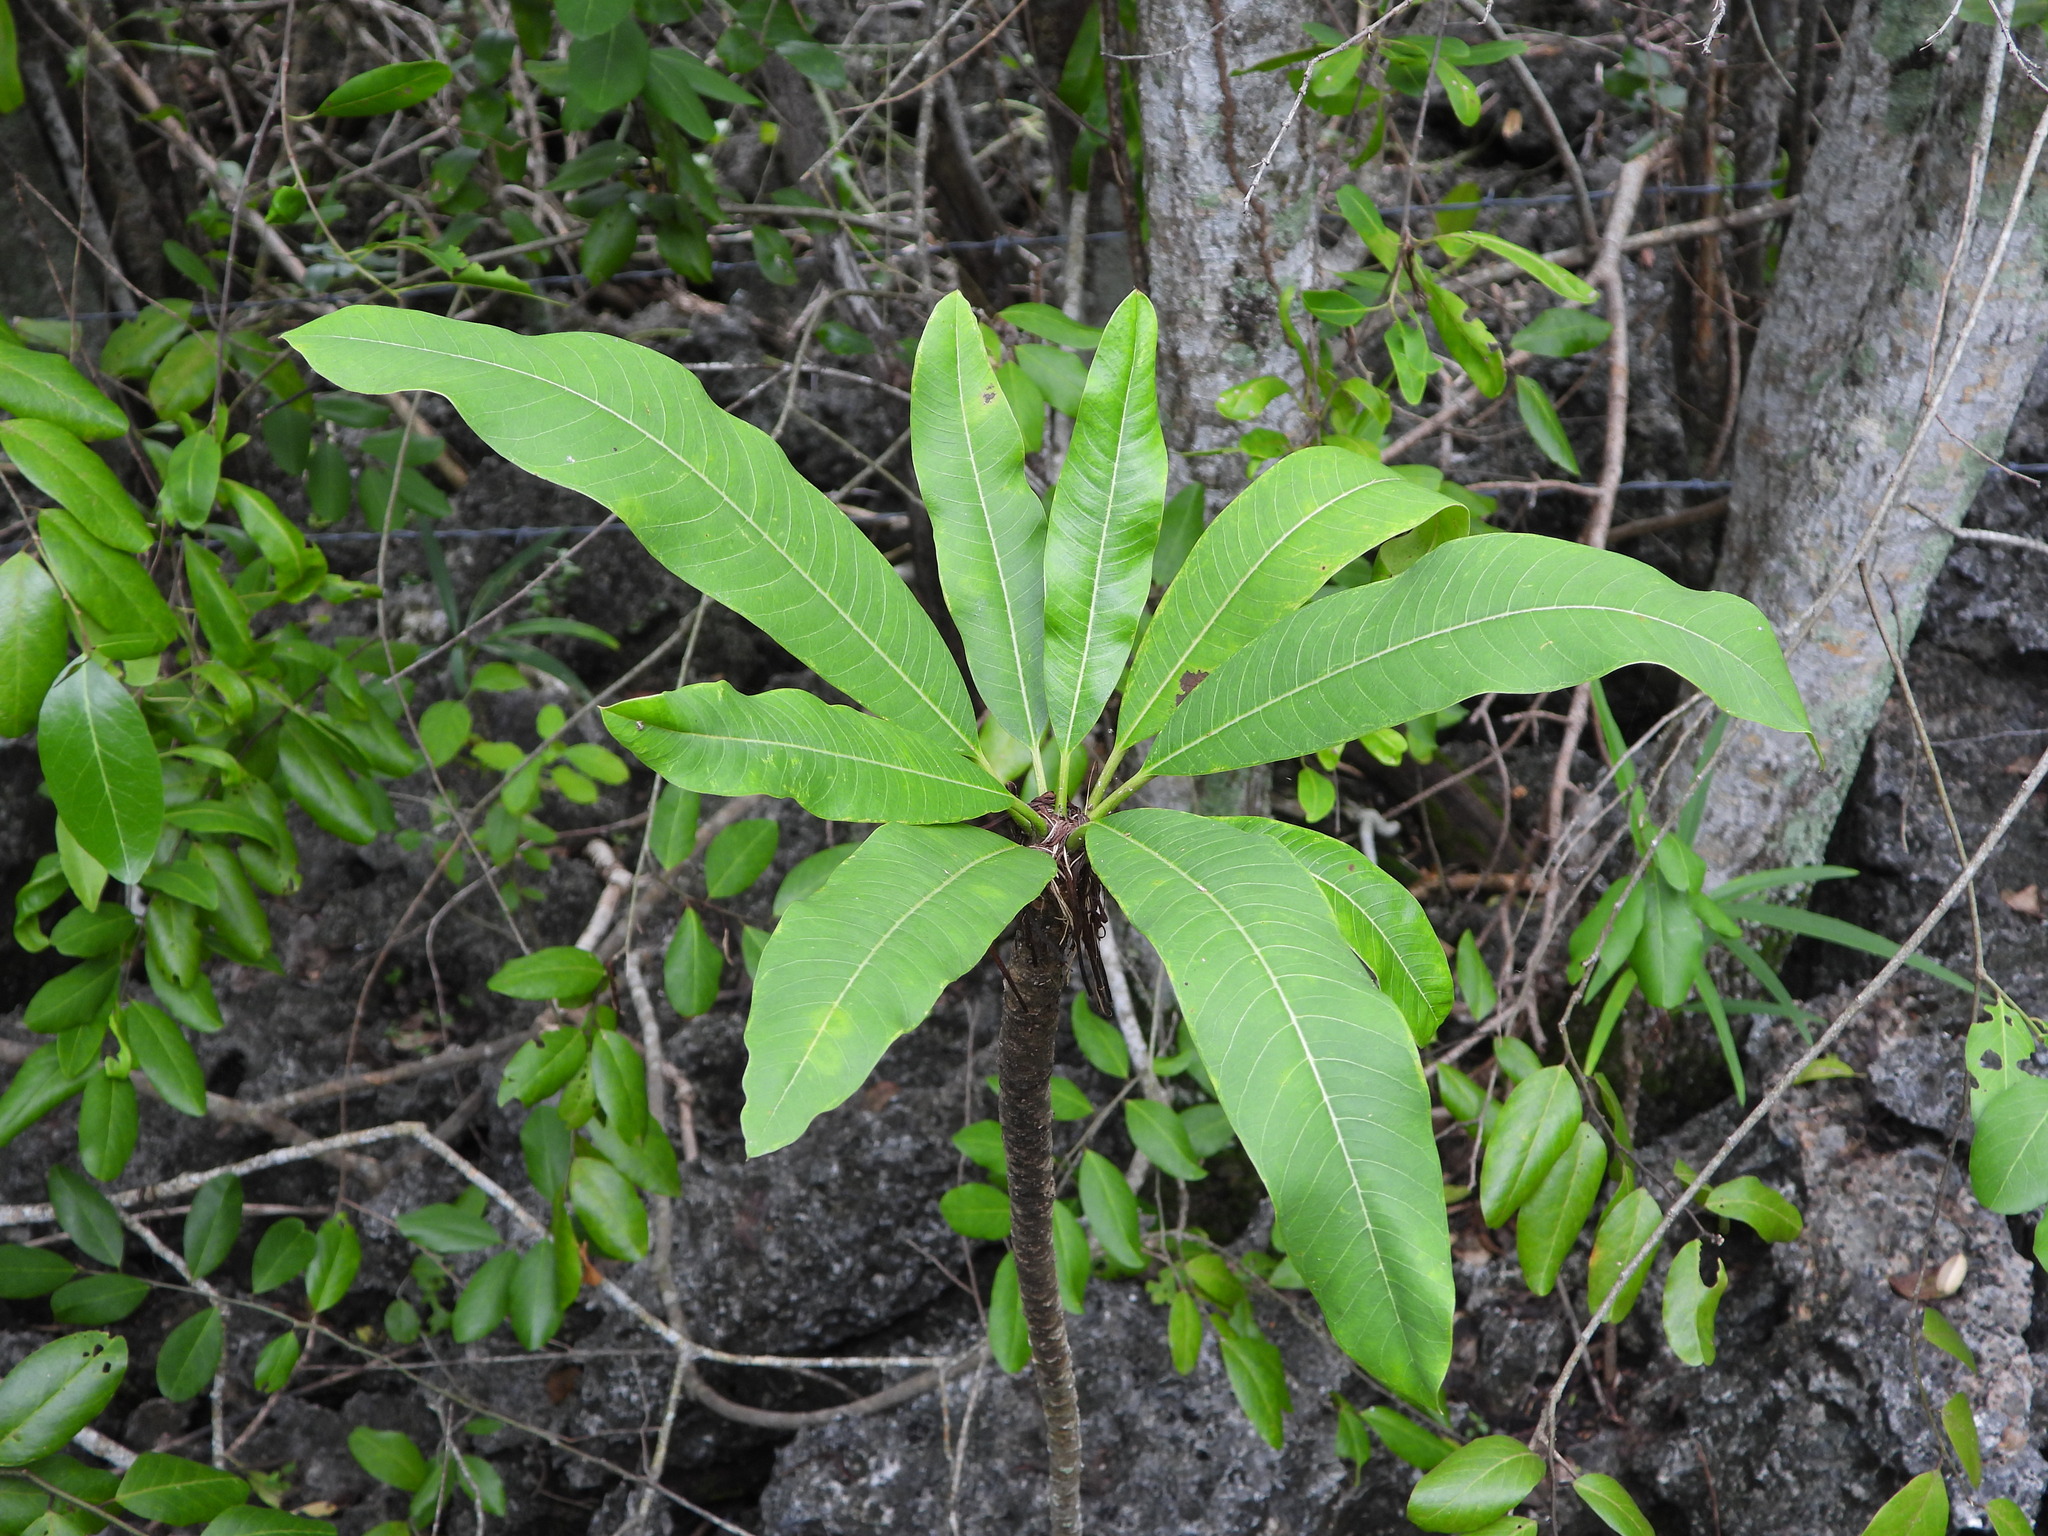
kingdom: Plantae
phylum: Tracheophyta
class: Magnoliopsida
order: Gentianales
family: Apocynaceae
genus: Plumeria
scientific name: Plumeria obtusa
